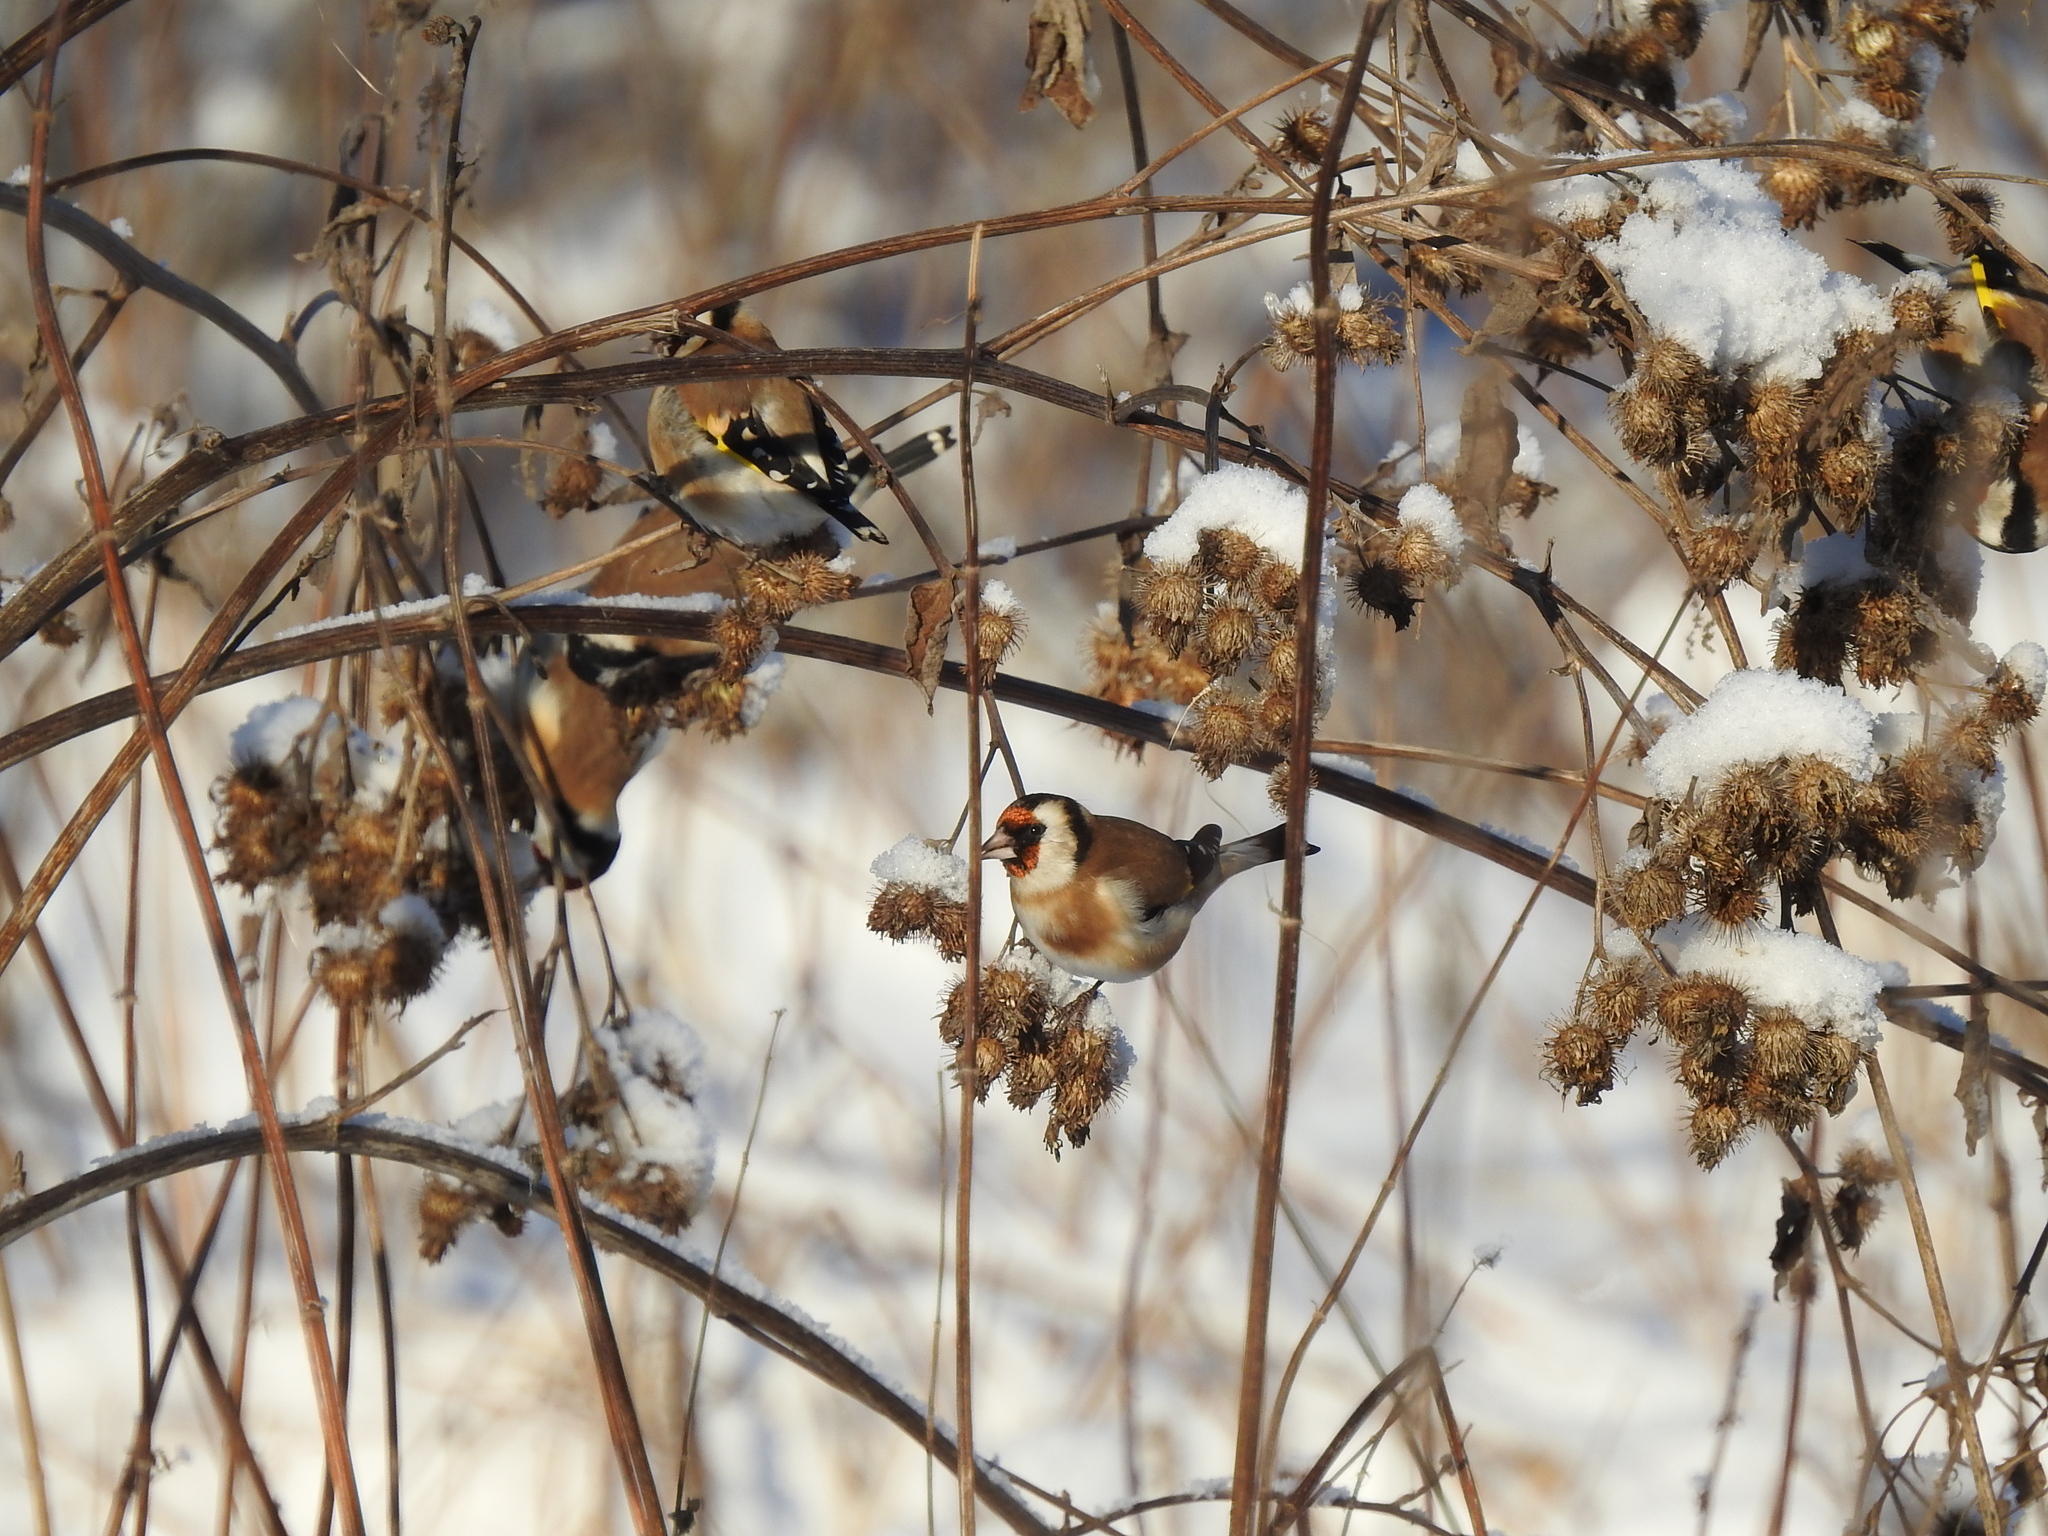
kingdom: Animalia
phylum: Chordata
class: Aves
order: Passeriformes
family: Fringillidae
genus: Carduelis
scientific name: Carduelis carduelis
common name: European goldfinch
